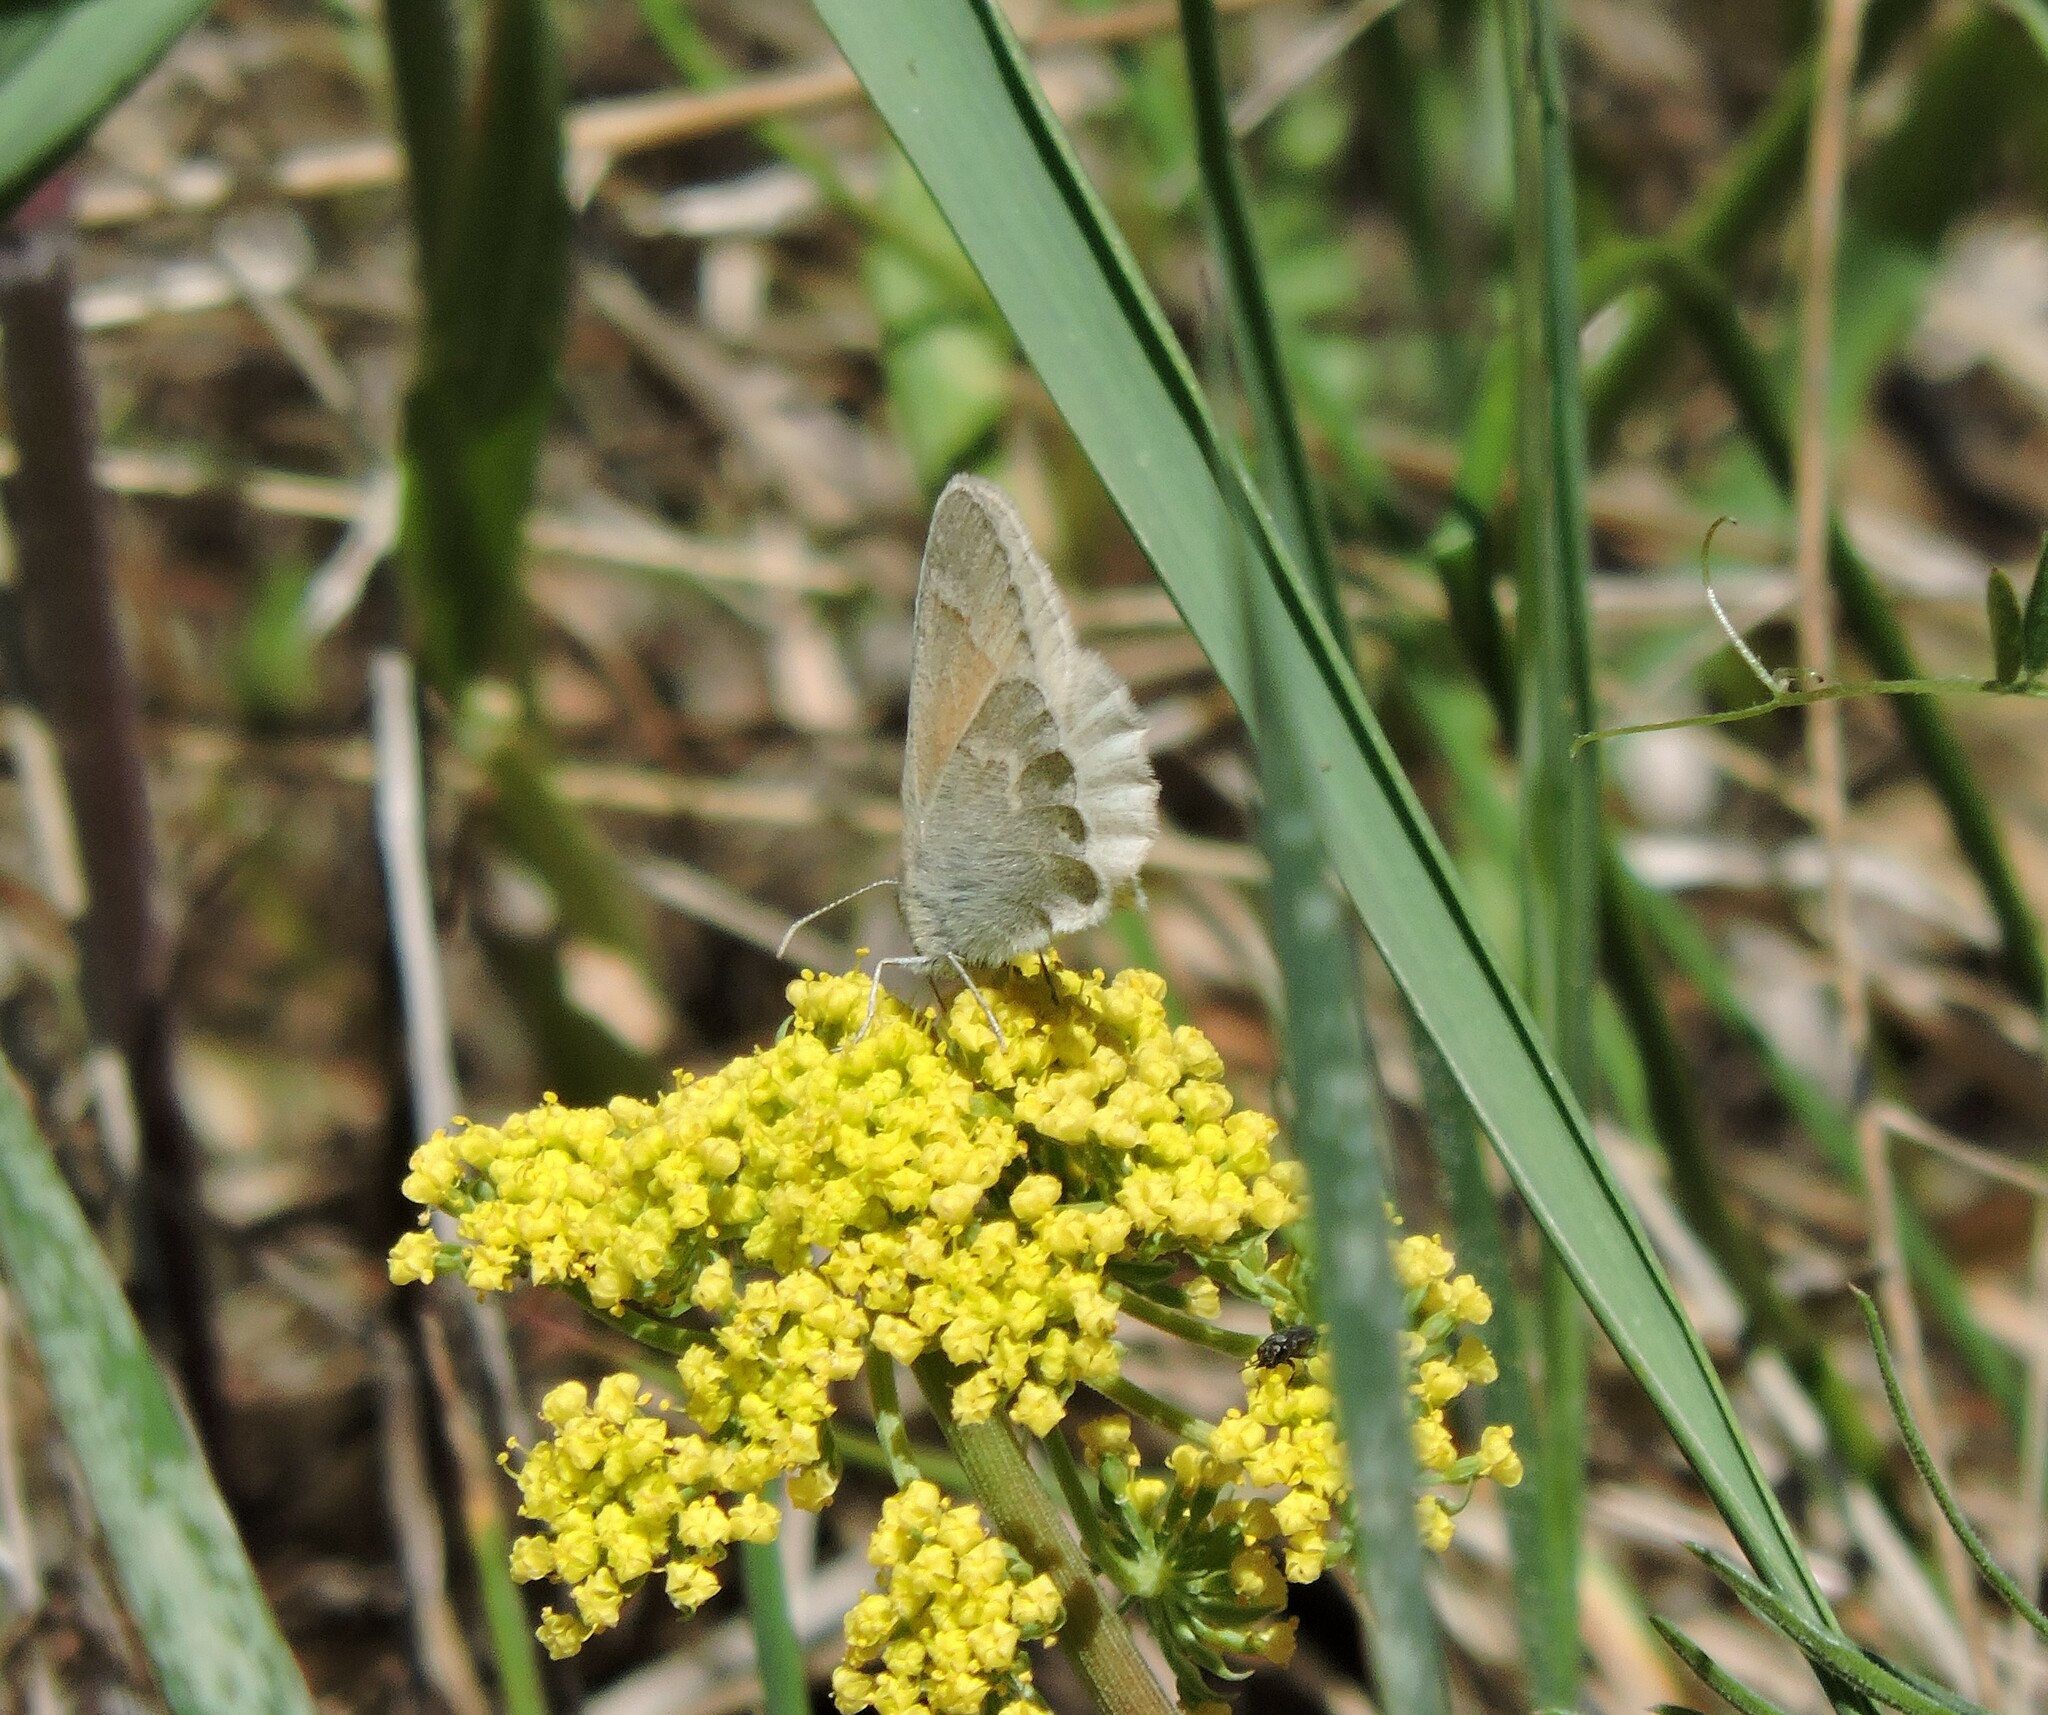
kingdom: Animalia
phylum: Arthropoda
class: Insecta
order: Lepidoptera
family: Nymphalidae
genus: Coenonympha
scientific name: Coenonympha california
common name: Common ringlet
